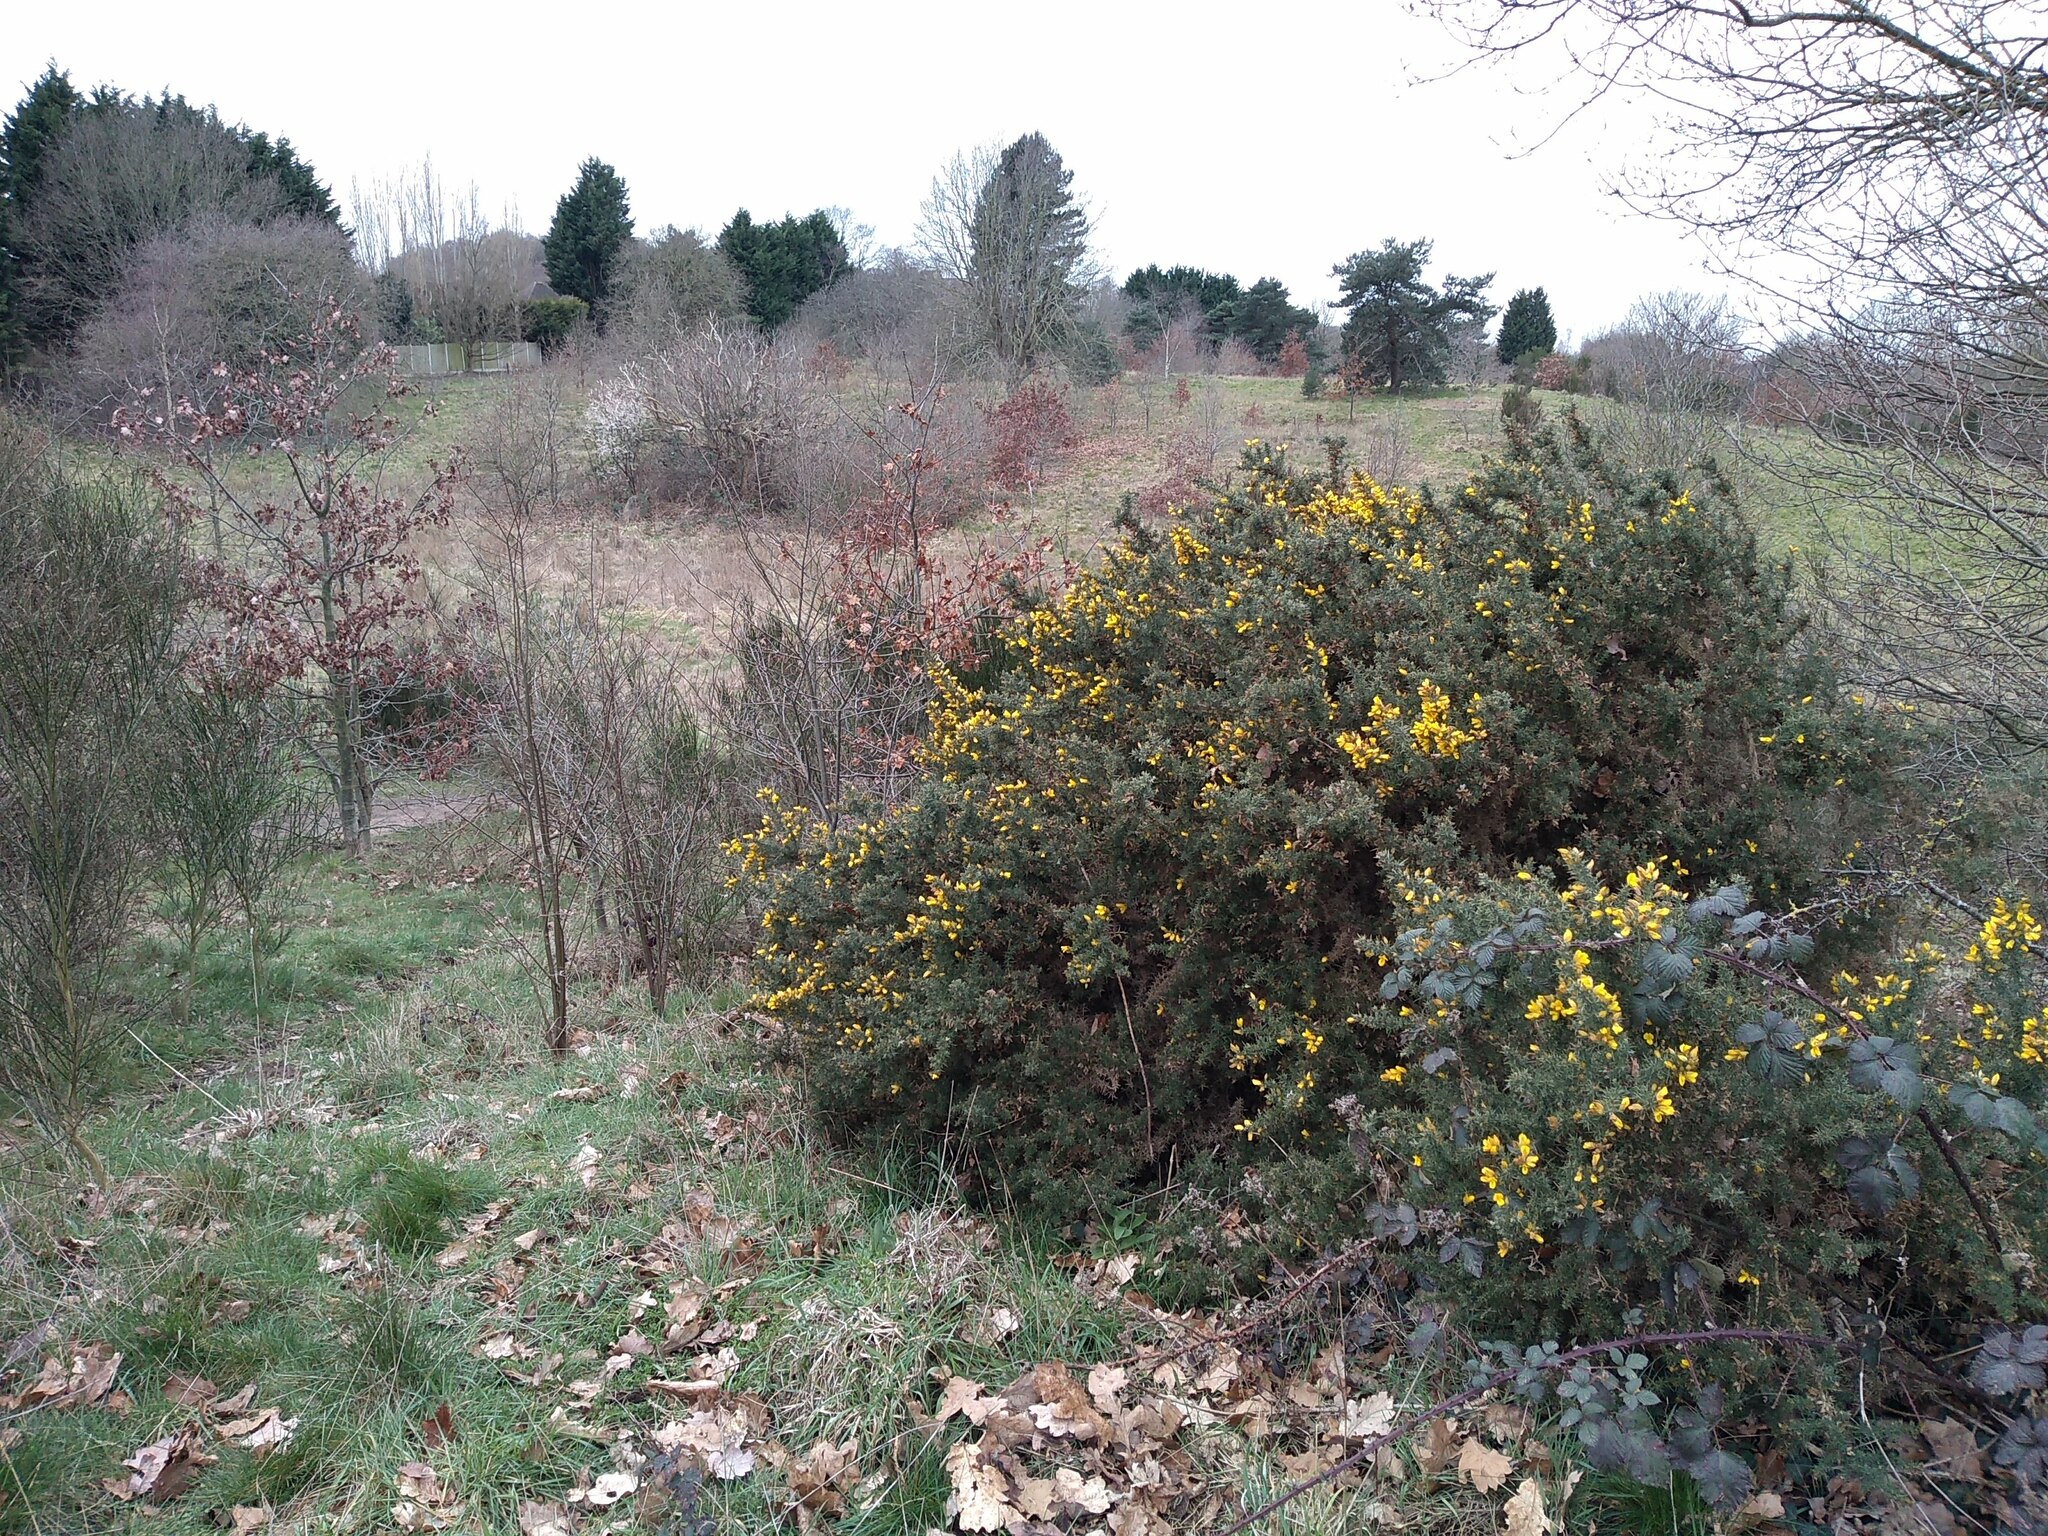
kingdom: Plantae
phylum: Tracheophyta
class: Magnoliopsida
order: Fabales
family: Fabaceae
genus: Ulex
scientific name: Ulex europaeus
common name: Common gorse
